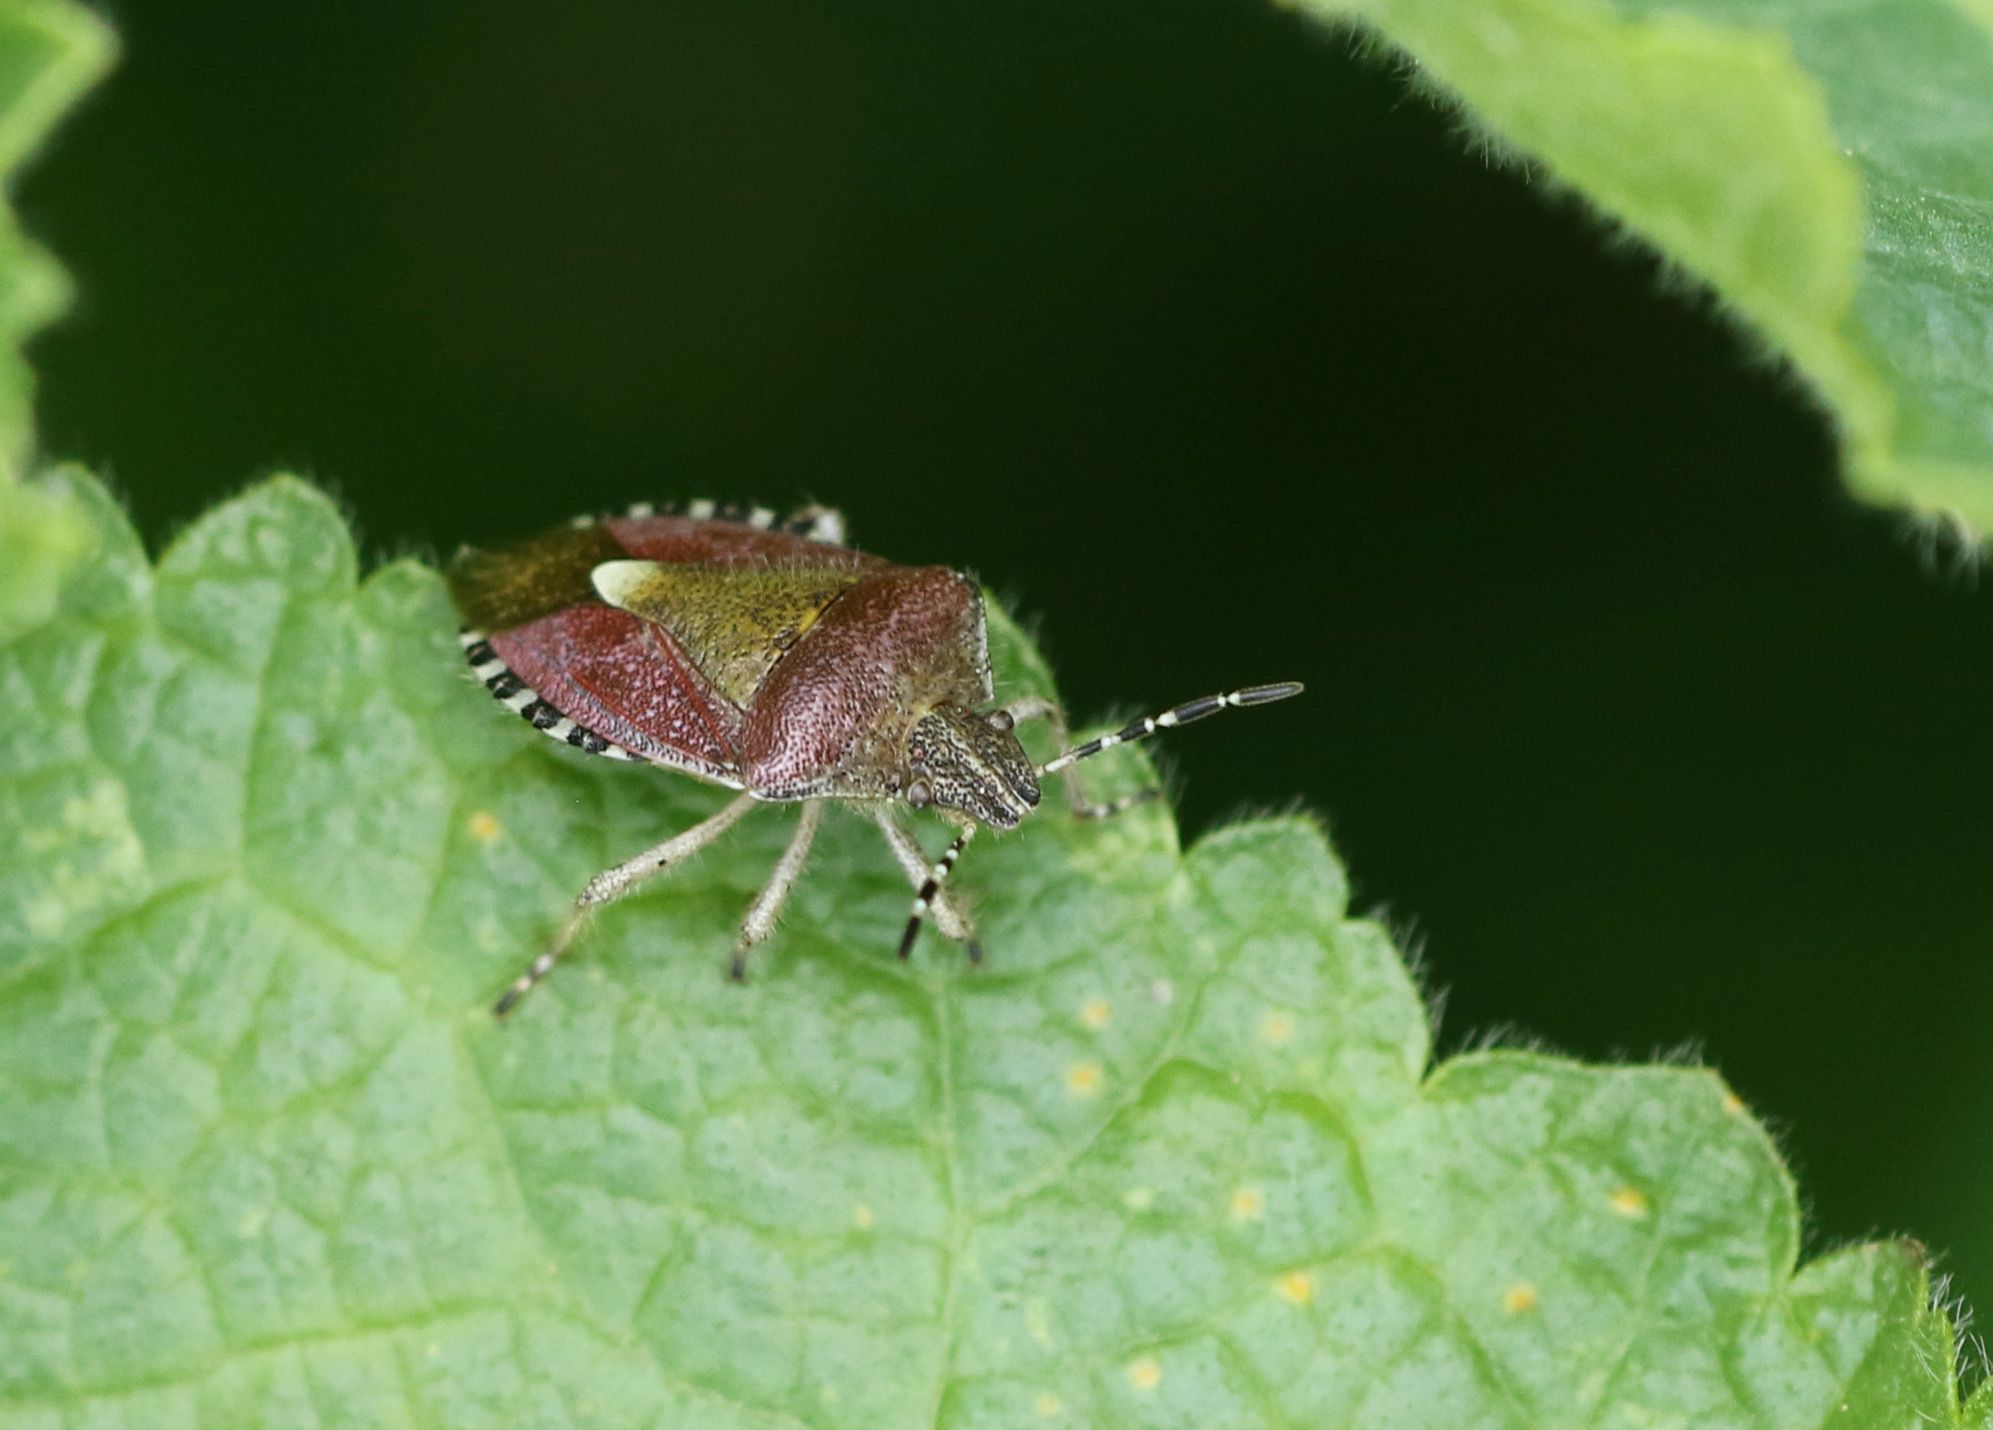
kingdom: Animalia
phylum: Arthropoda
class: Insecta
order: Hemiptera
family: Pentatomidae
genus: Dolycoris
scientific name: Dolycoris baccarum
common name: Sloe bug
